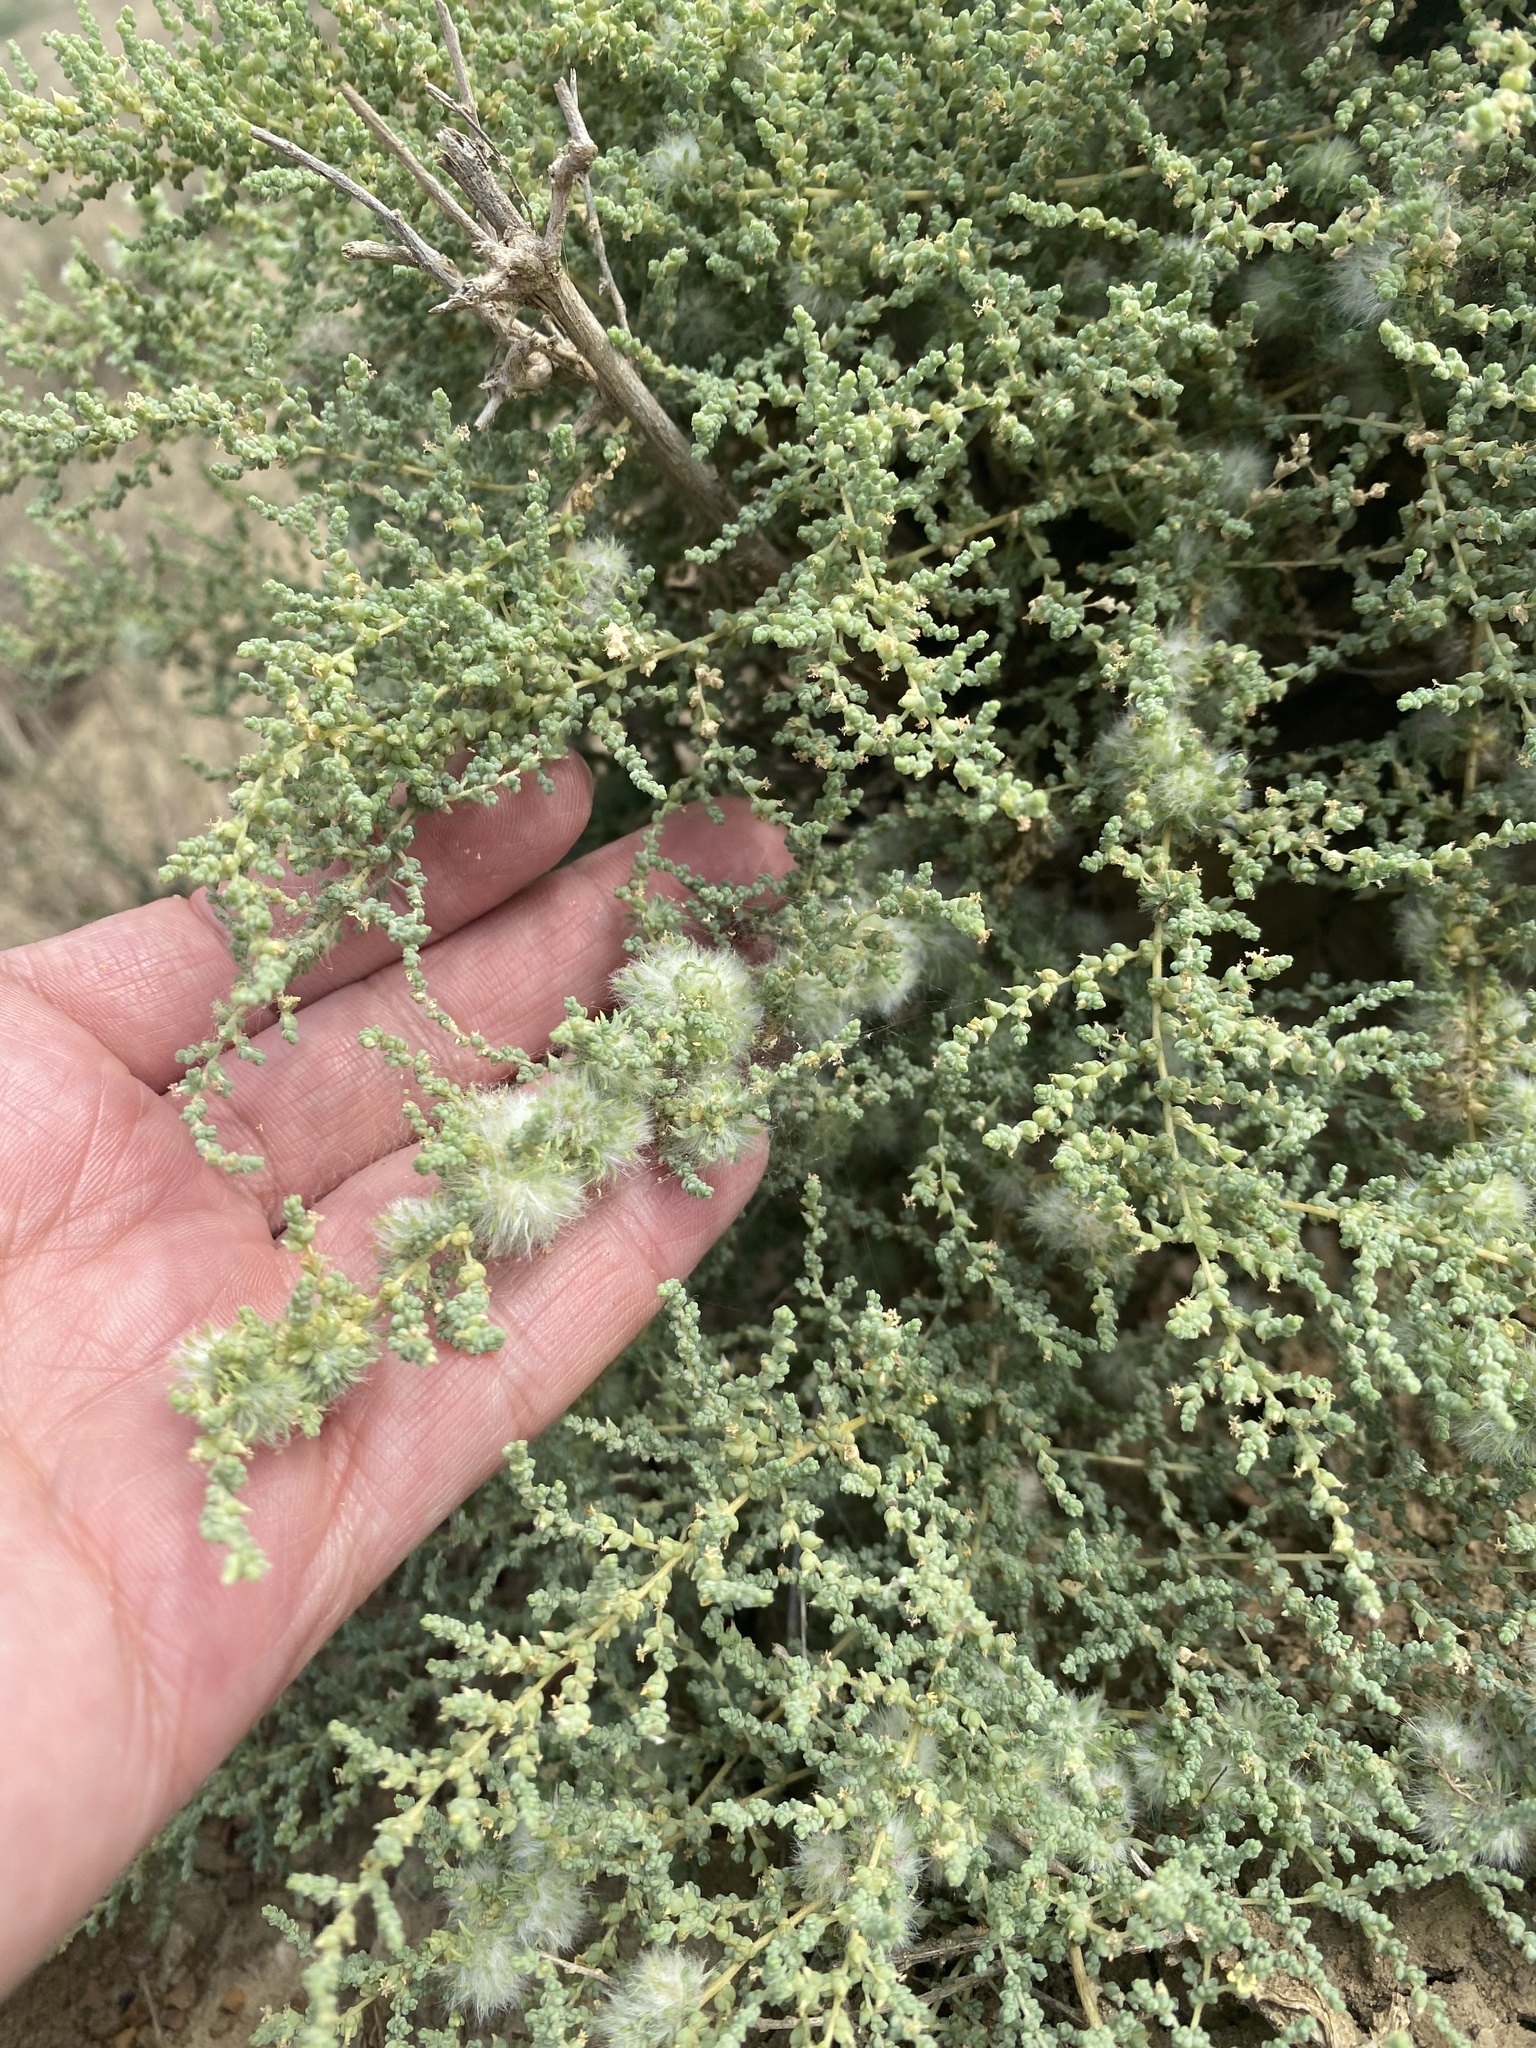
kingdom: Plantae
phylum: Tracheophyta
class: Magnoliopsida
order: Caryophyllales
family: Amaranthaceae
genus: Nitrosalsola
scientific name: Nitrosalsola dendroides
